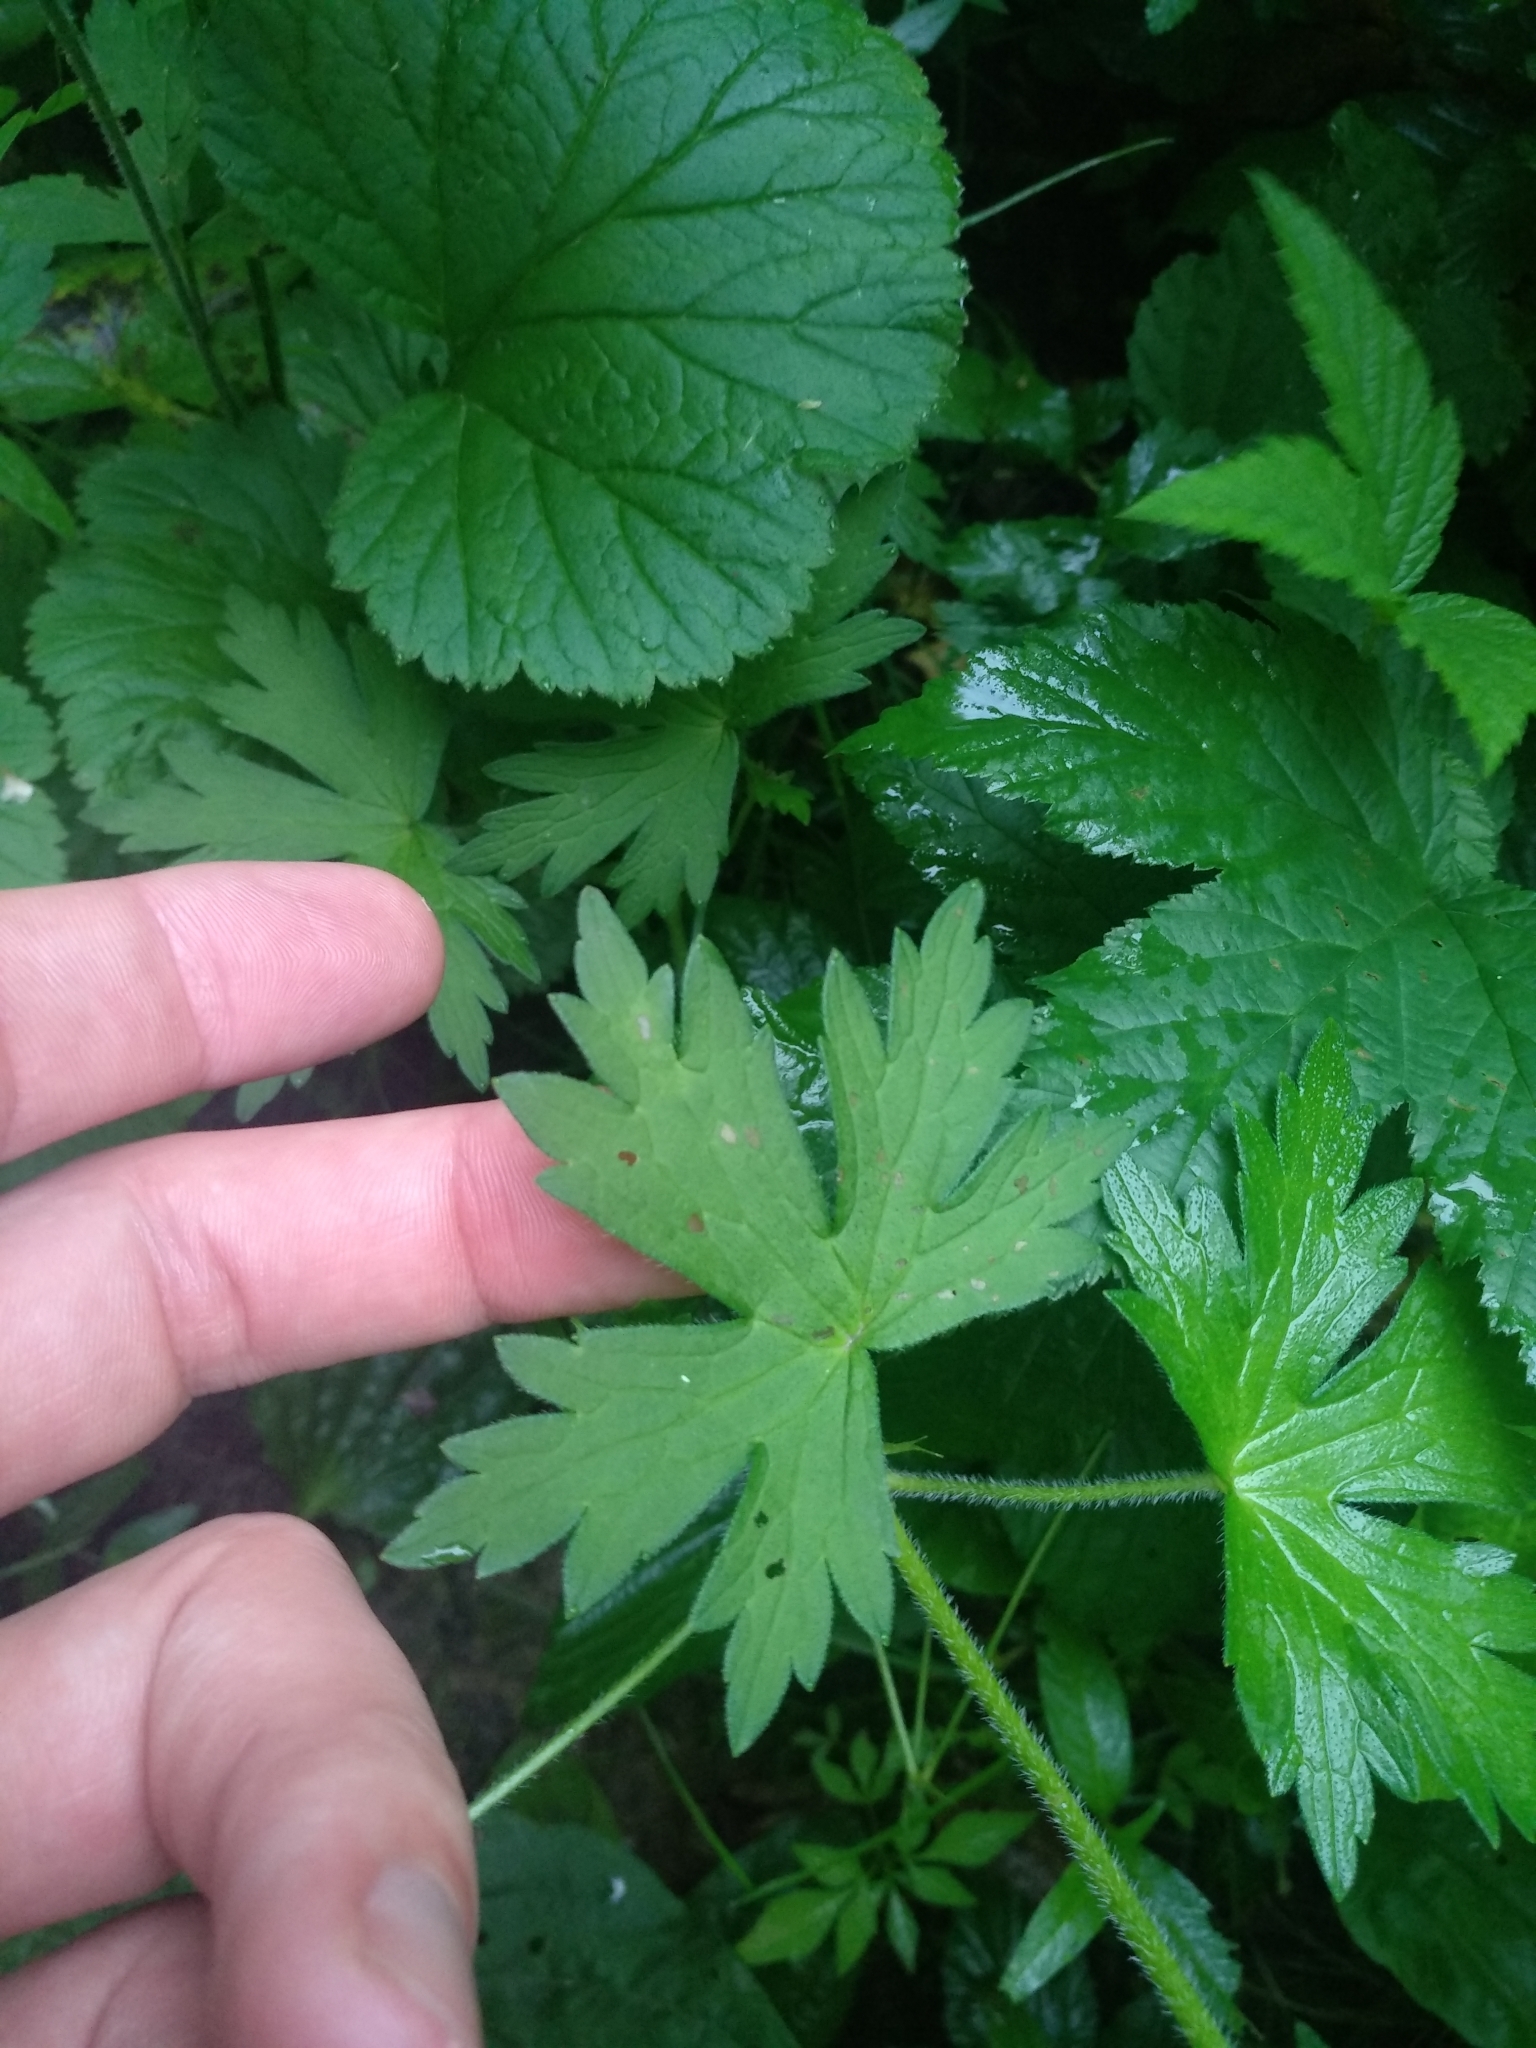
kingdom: Plantae
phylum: Tracheophyta
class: Magnoliopsida
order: Geraniales
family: Geraniaceae
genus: Geranium
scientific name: Geranium palustre
